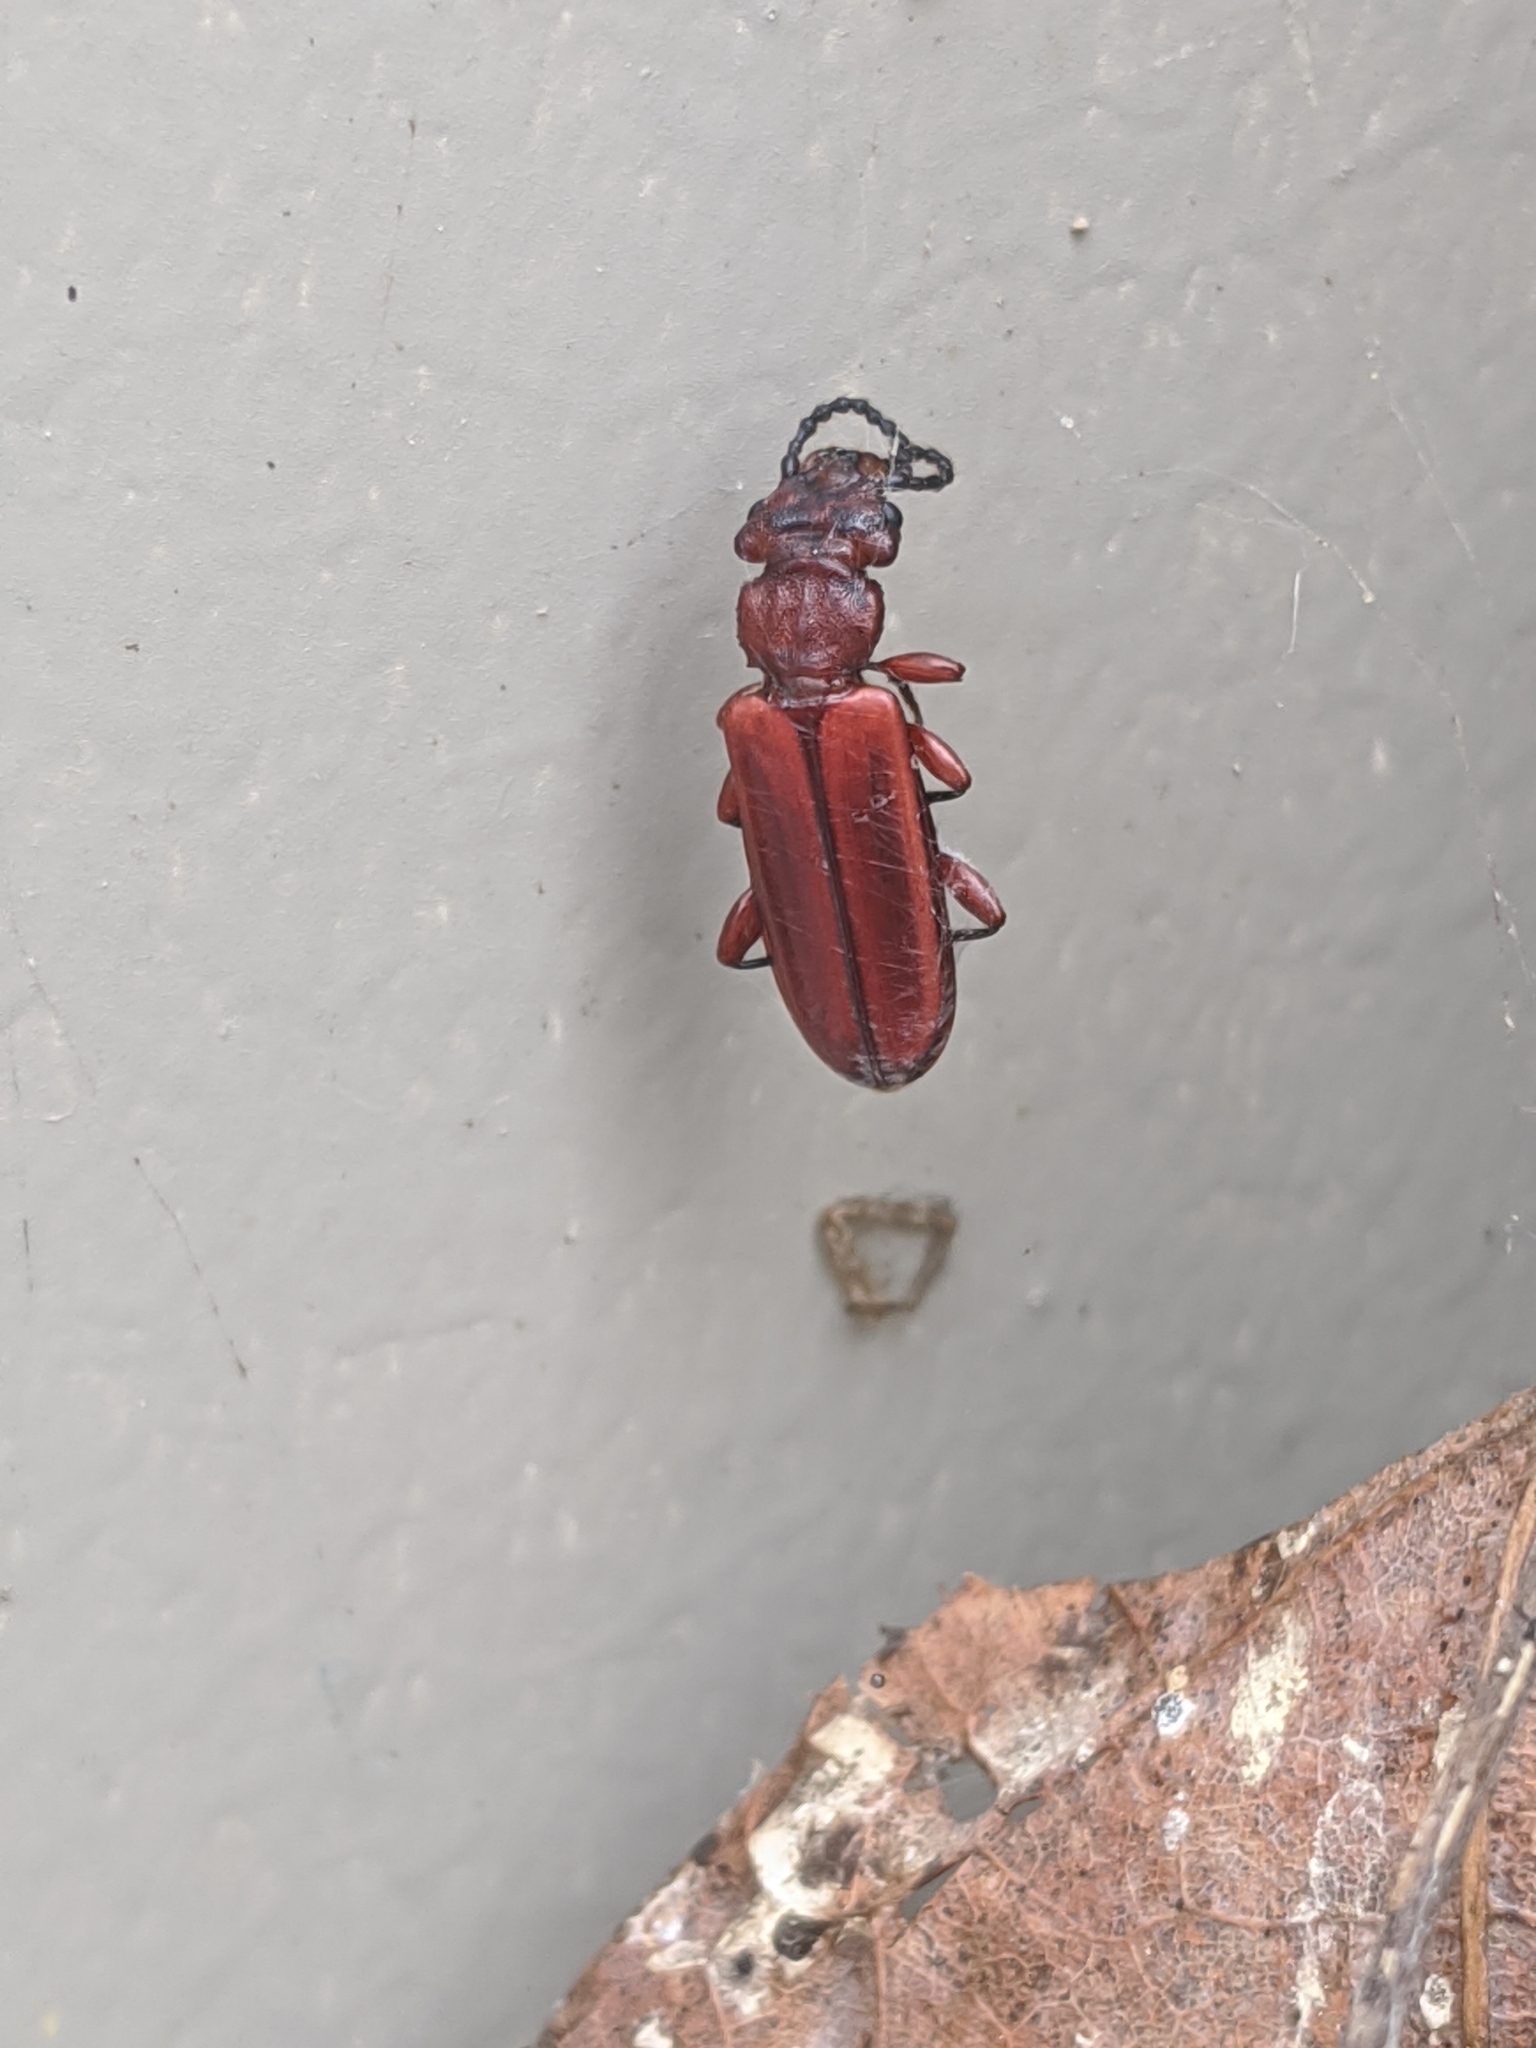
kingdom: Animalia
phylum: Arthropoda
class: Insecta
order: Coleoptera
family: Cucujidae
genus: Cucujus
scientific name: Cucujus clavipes
